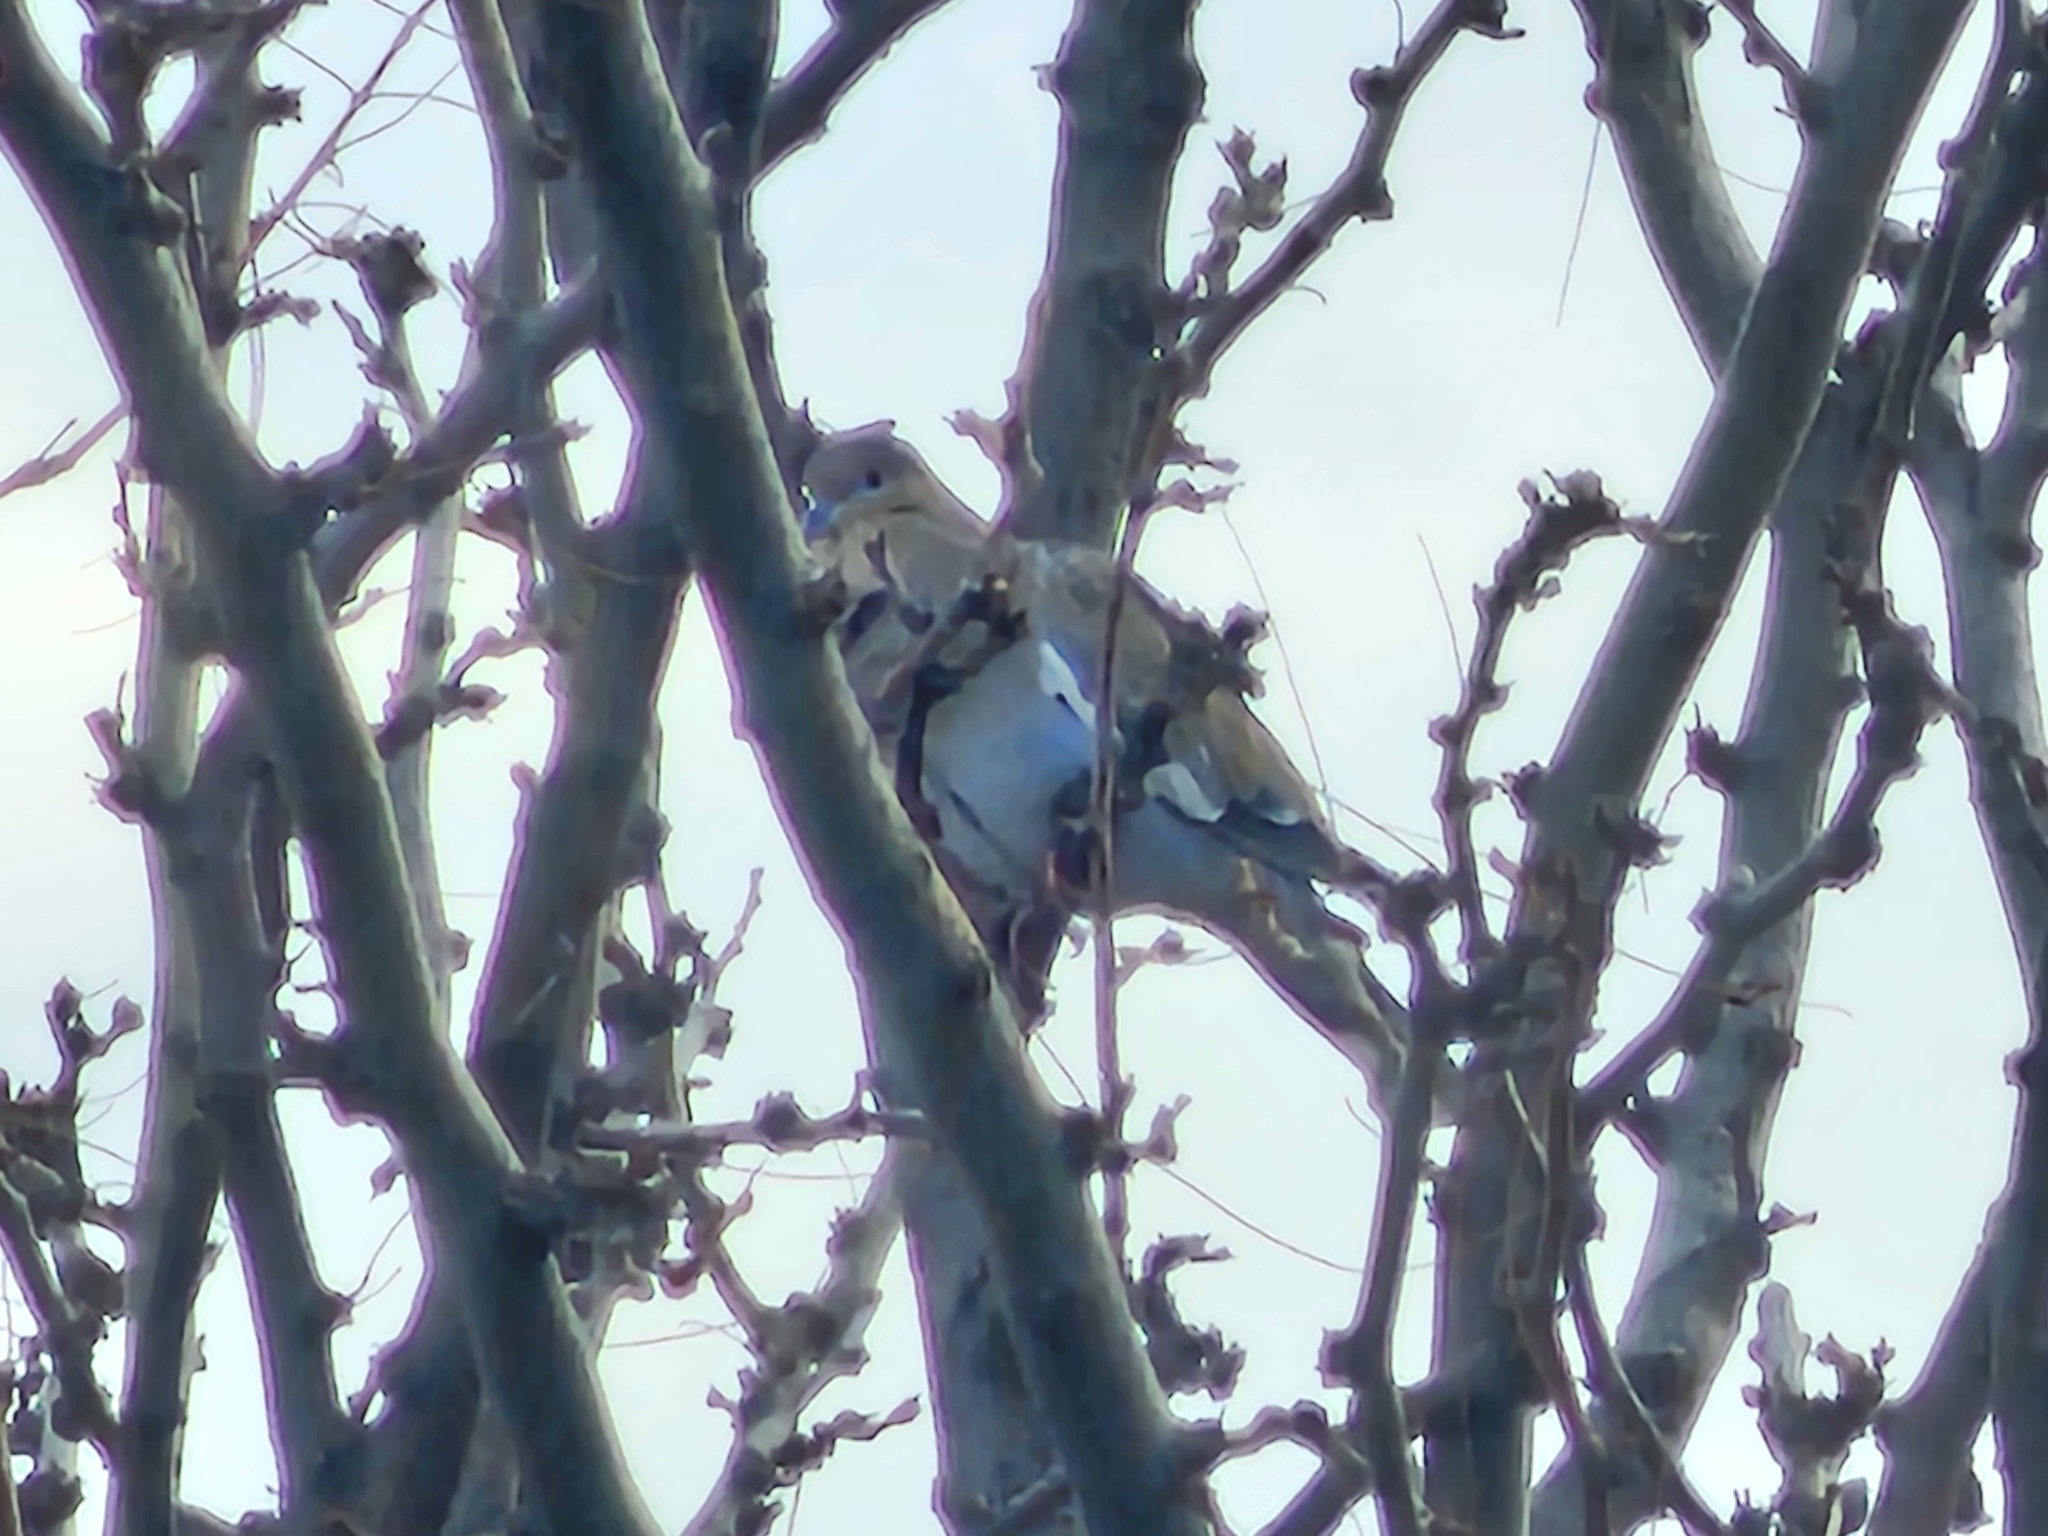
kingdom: Animalia
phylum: Chordata
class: Aves
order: Columbiformes
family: Columbidae
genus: Zenaida
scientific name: Zenaida asiatica
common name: White-winged dove
